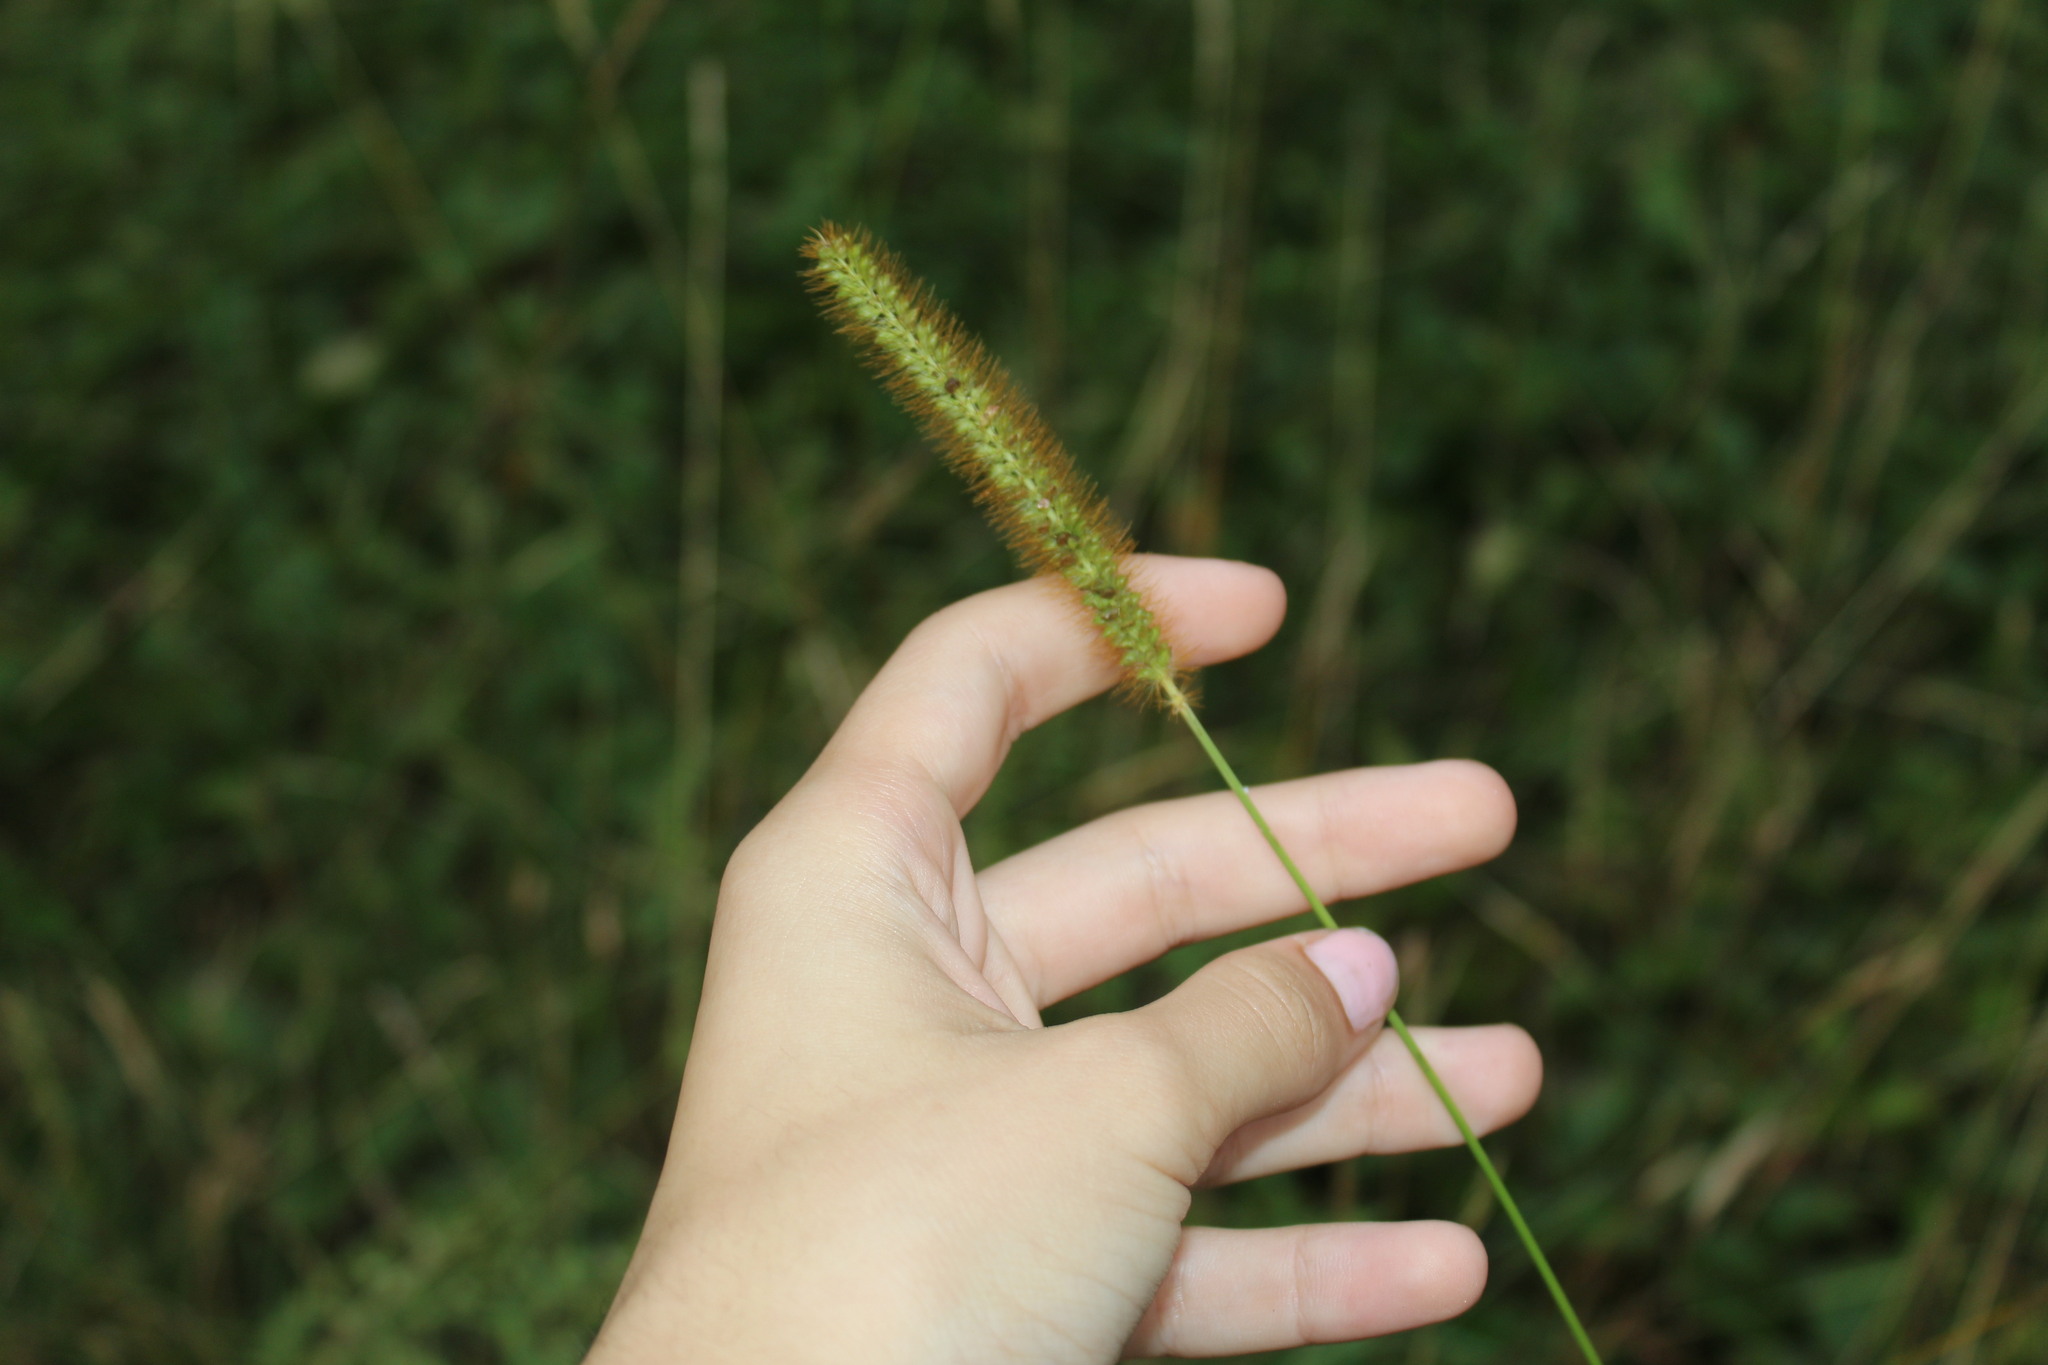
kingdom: Plantae
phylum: Tracheophyta
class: Liliopsida
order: Poales
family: Poaceae
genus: Setaria
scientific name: Setaria pumila
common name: Yellow bristle-grass
